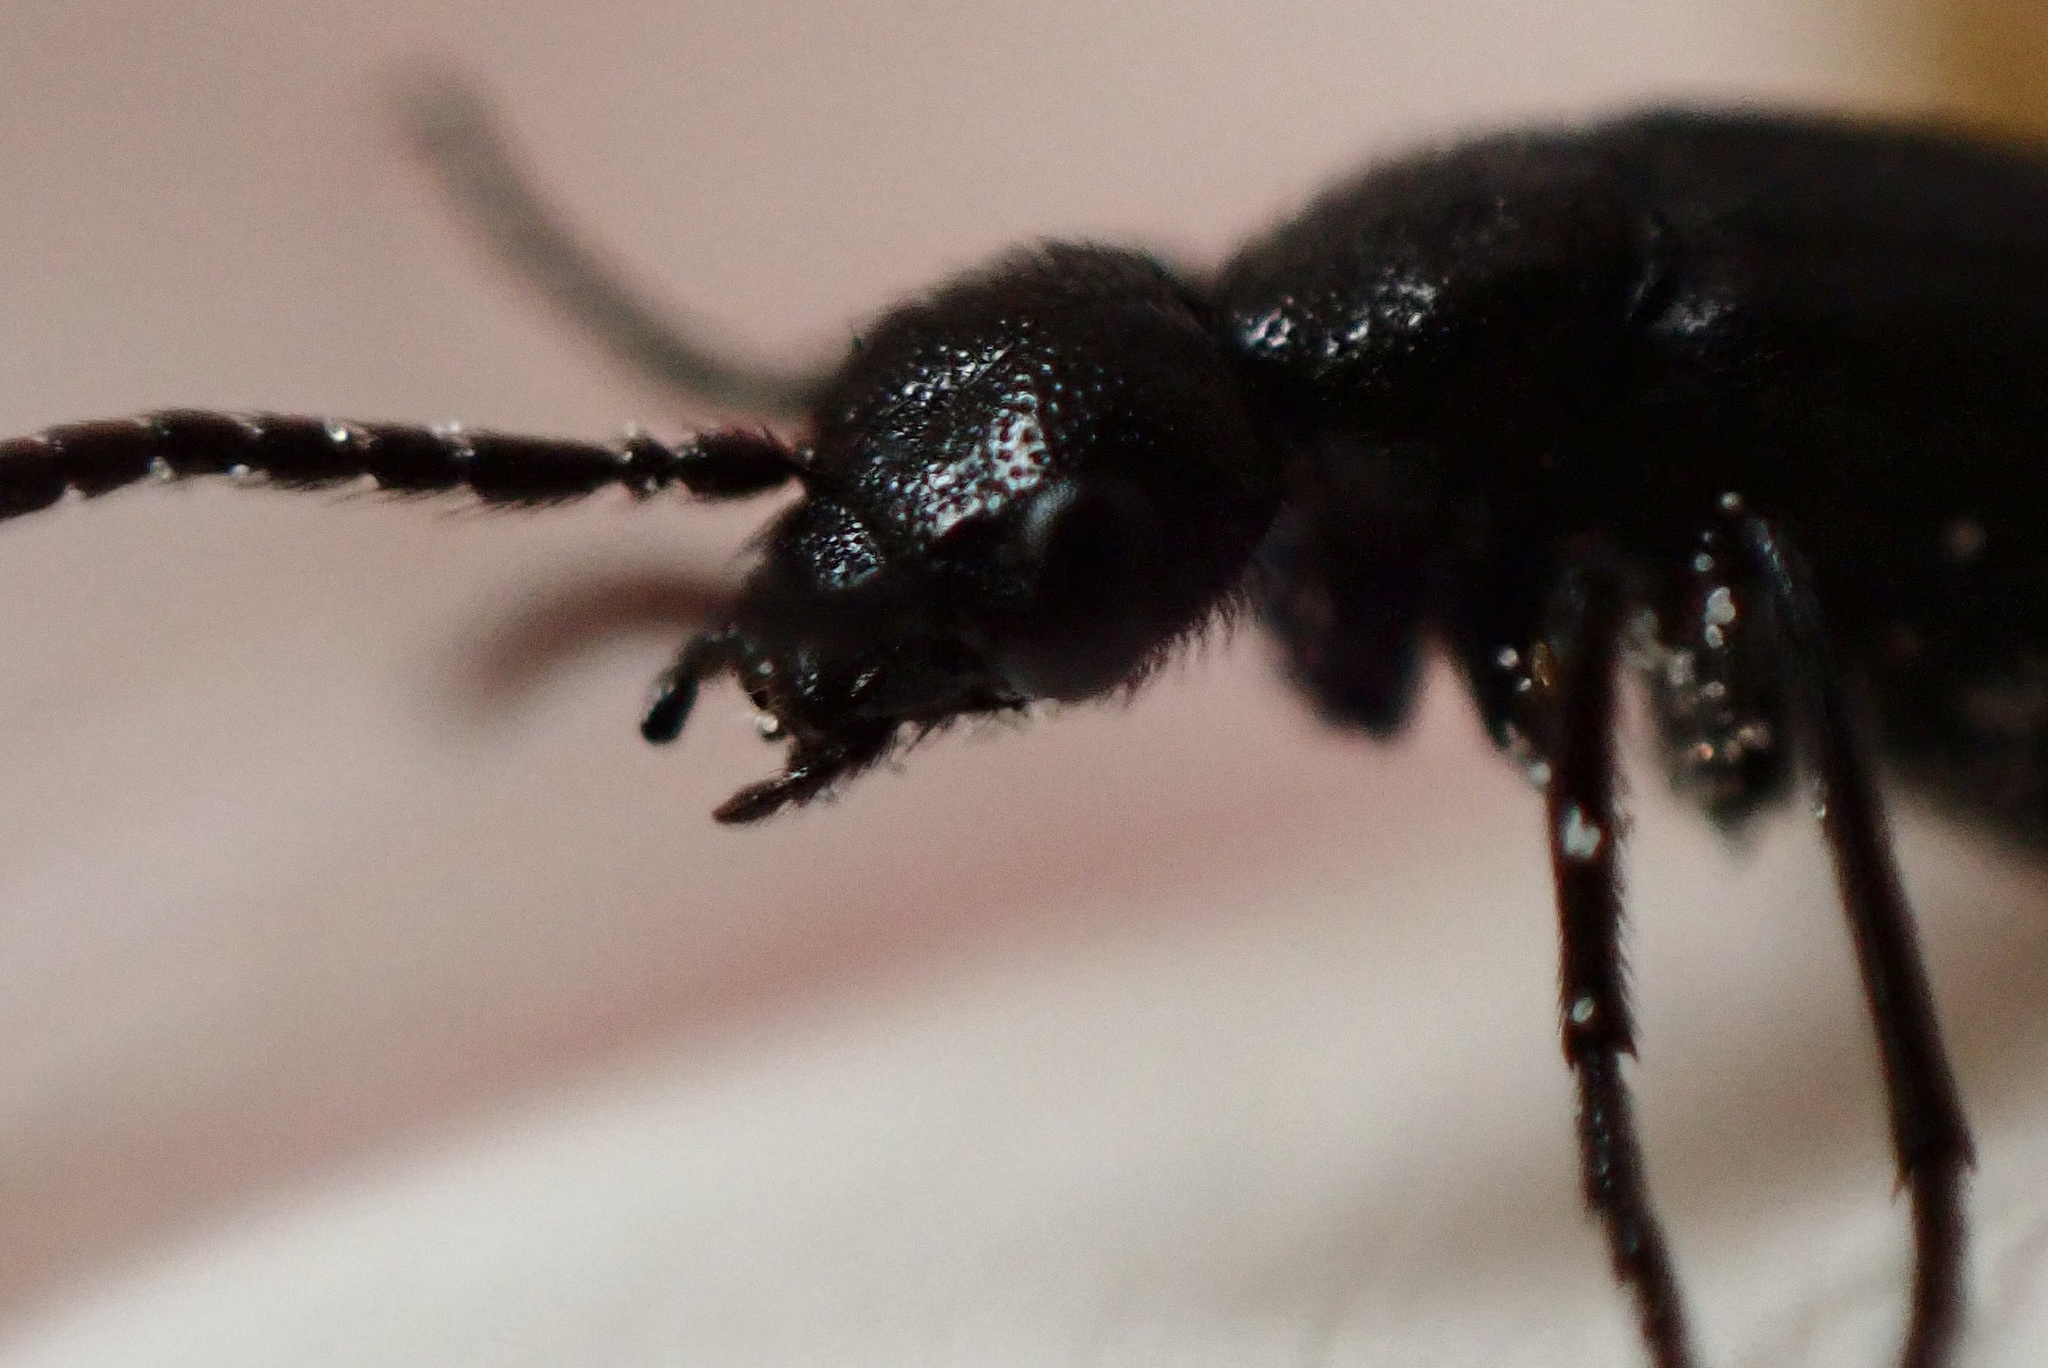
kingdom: Animalia
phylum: Arthropoda
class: Insecta
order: Coleoptera
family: Meloidae
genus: Epicauta
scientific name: Epicauta puncticollis
